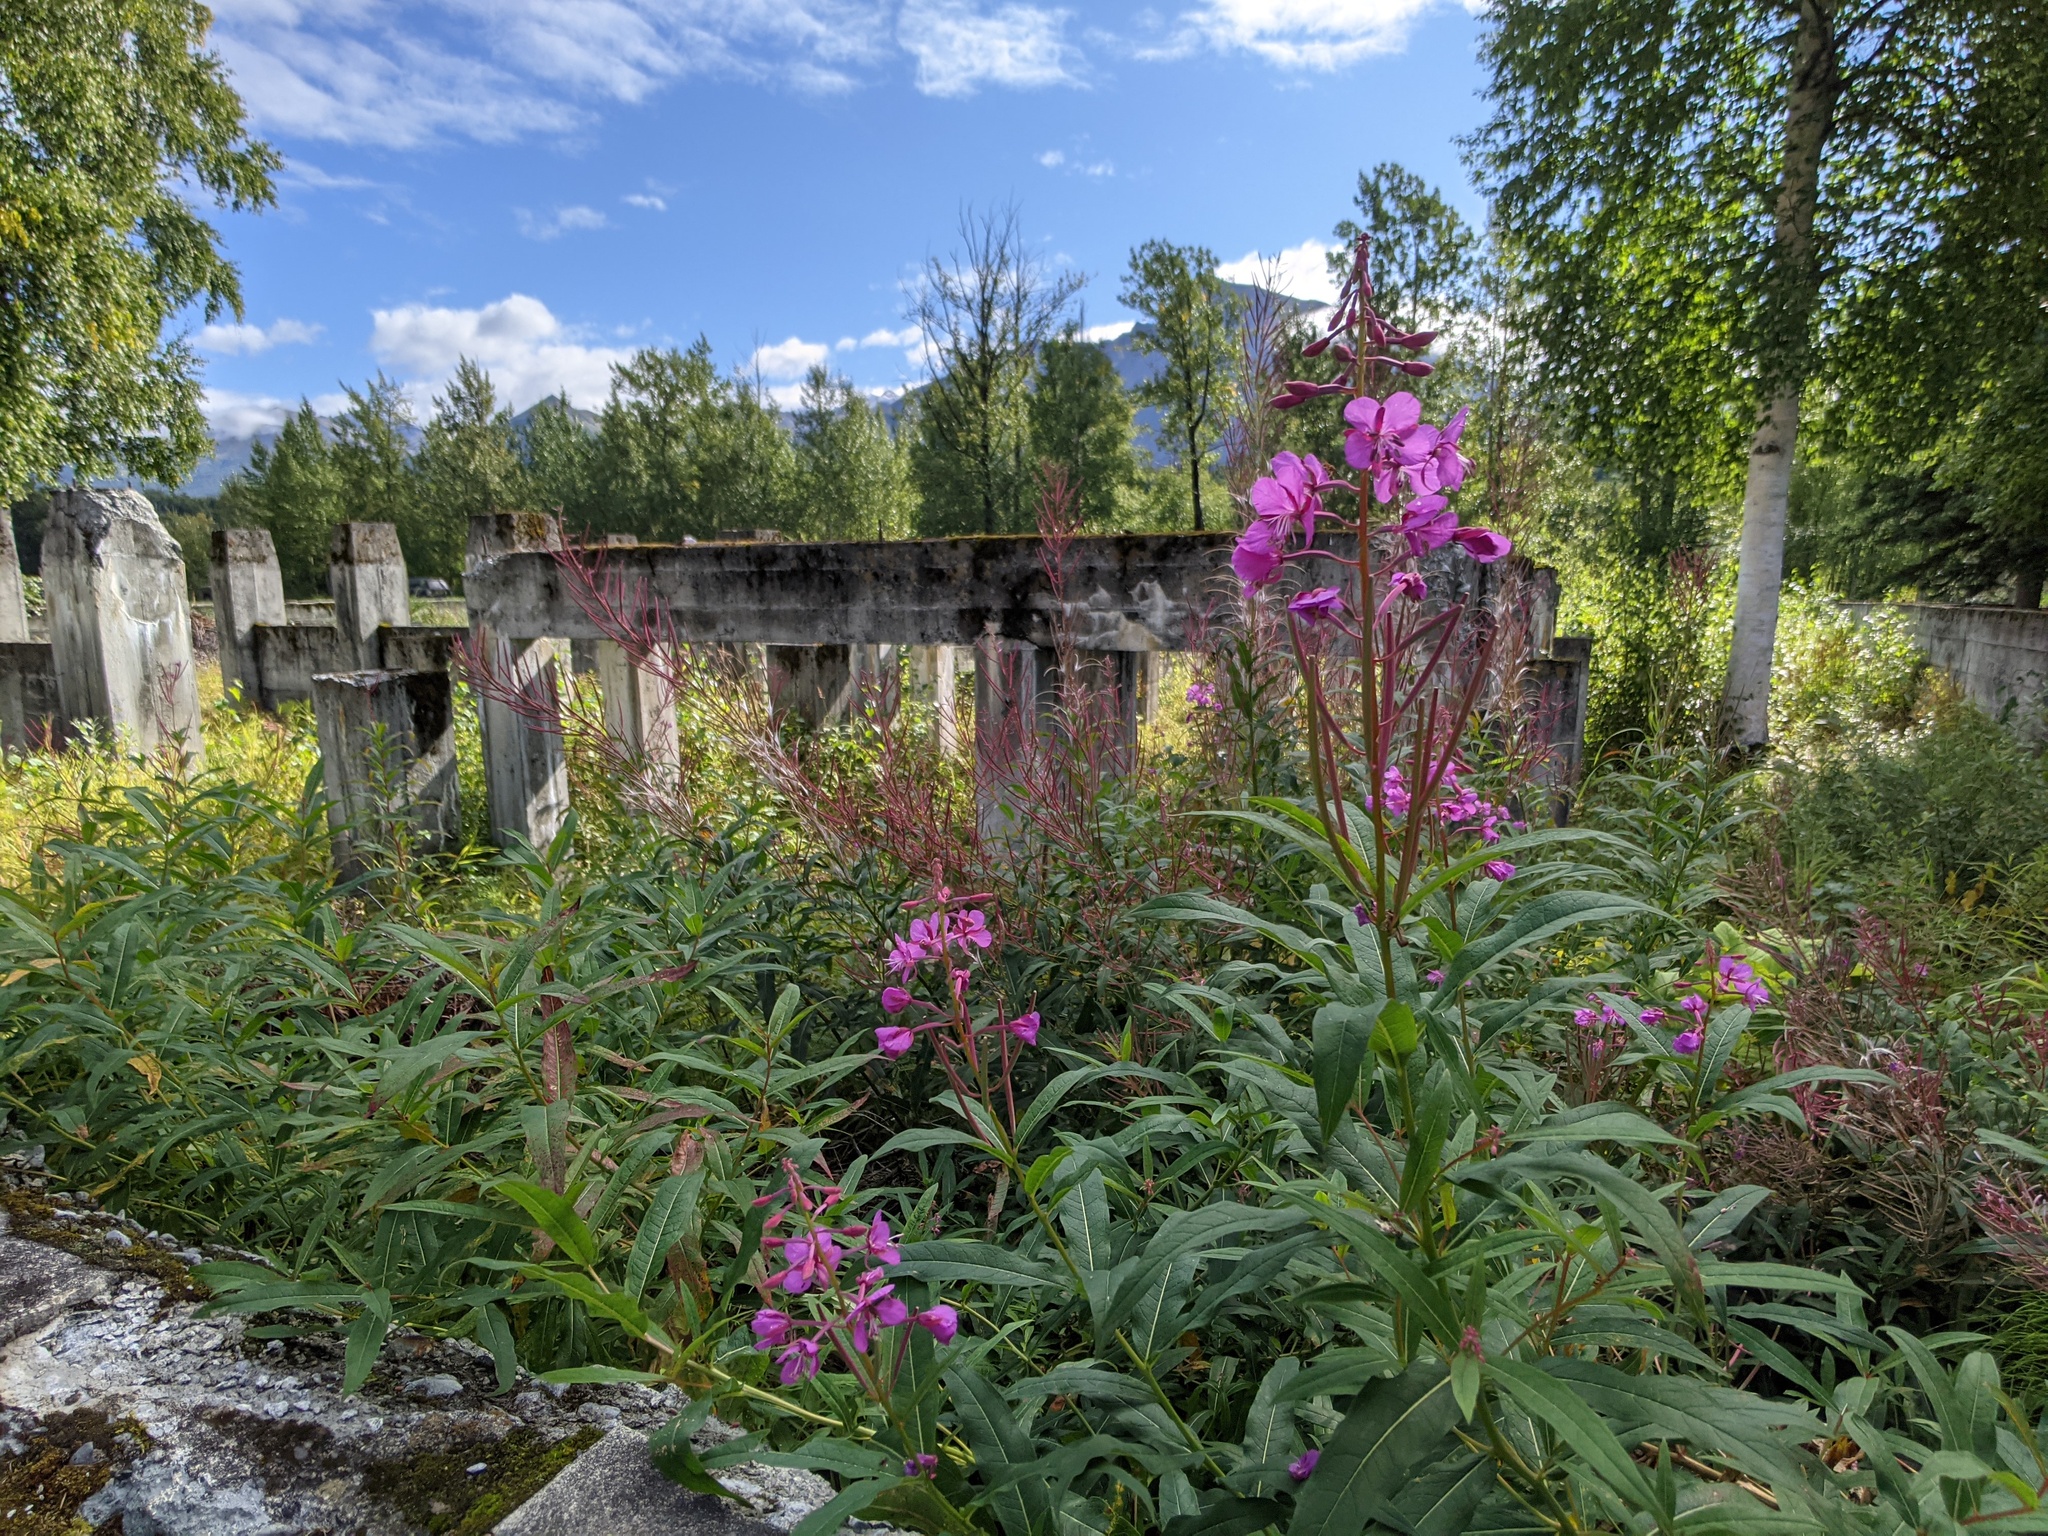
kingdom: Plantae
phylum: Tracheophyta
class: Magnoliopsida
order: Myrtales
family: Onagraceae
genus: Chamaenerion
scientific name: Chamaenerion angustifolium
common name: Fireweed
